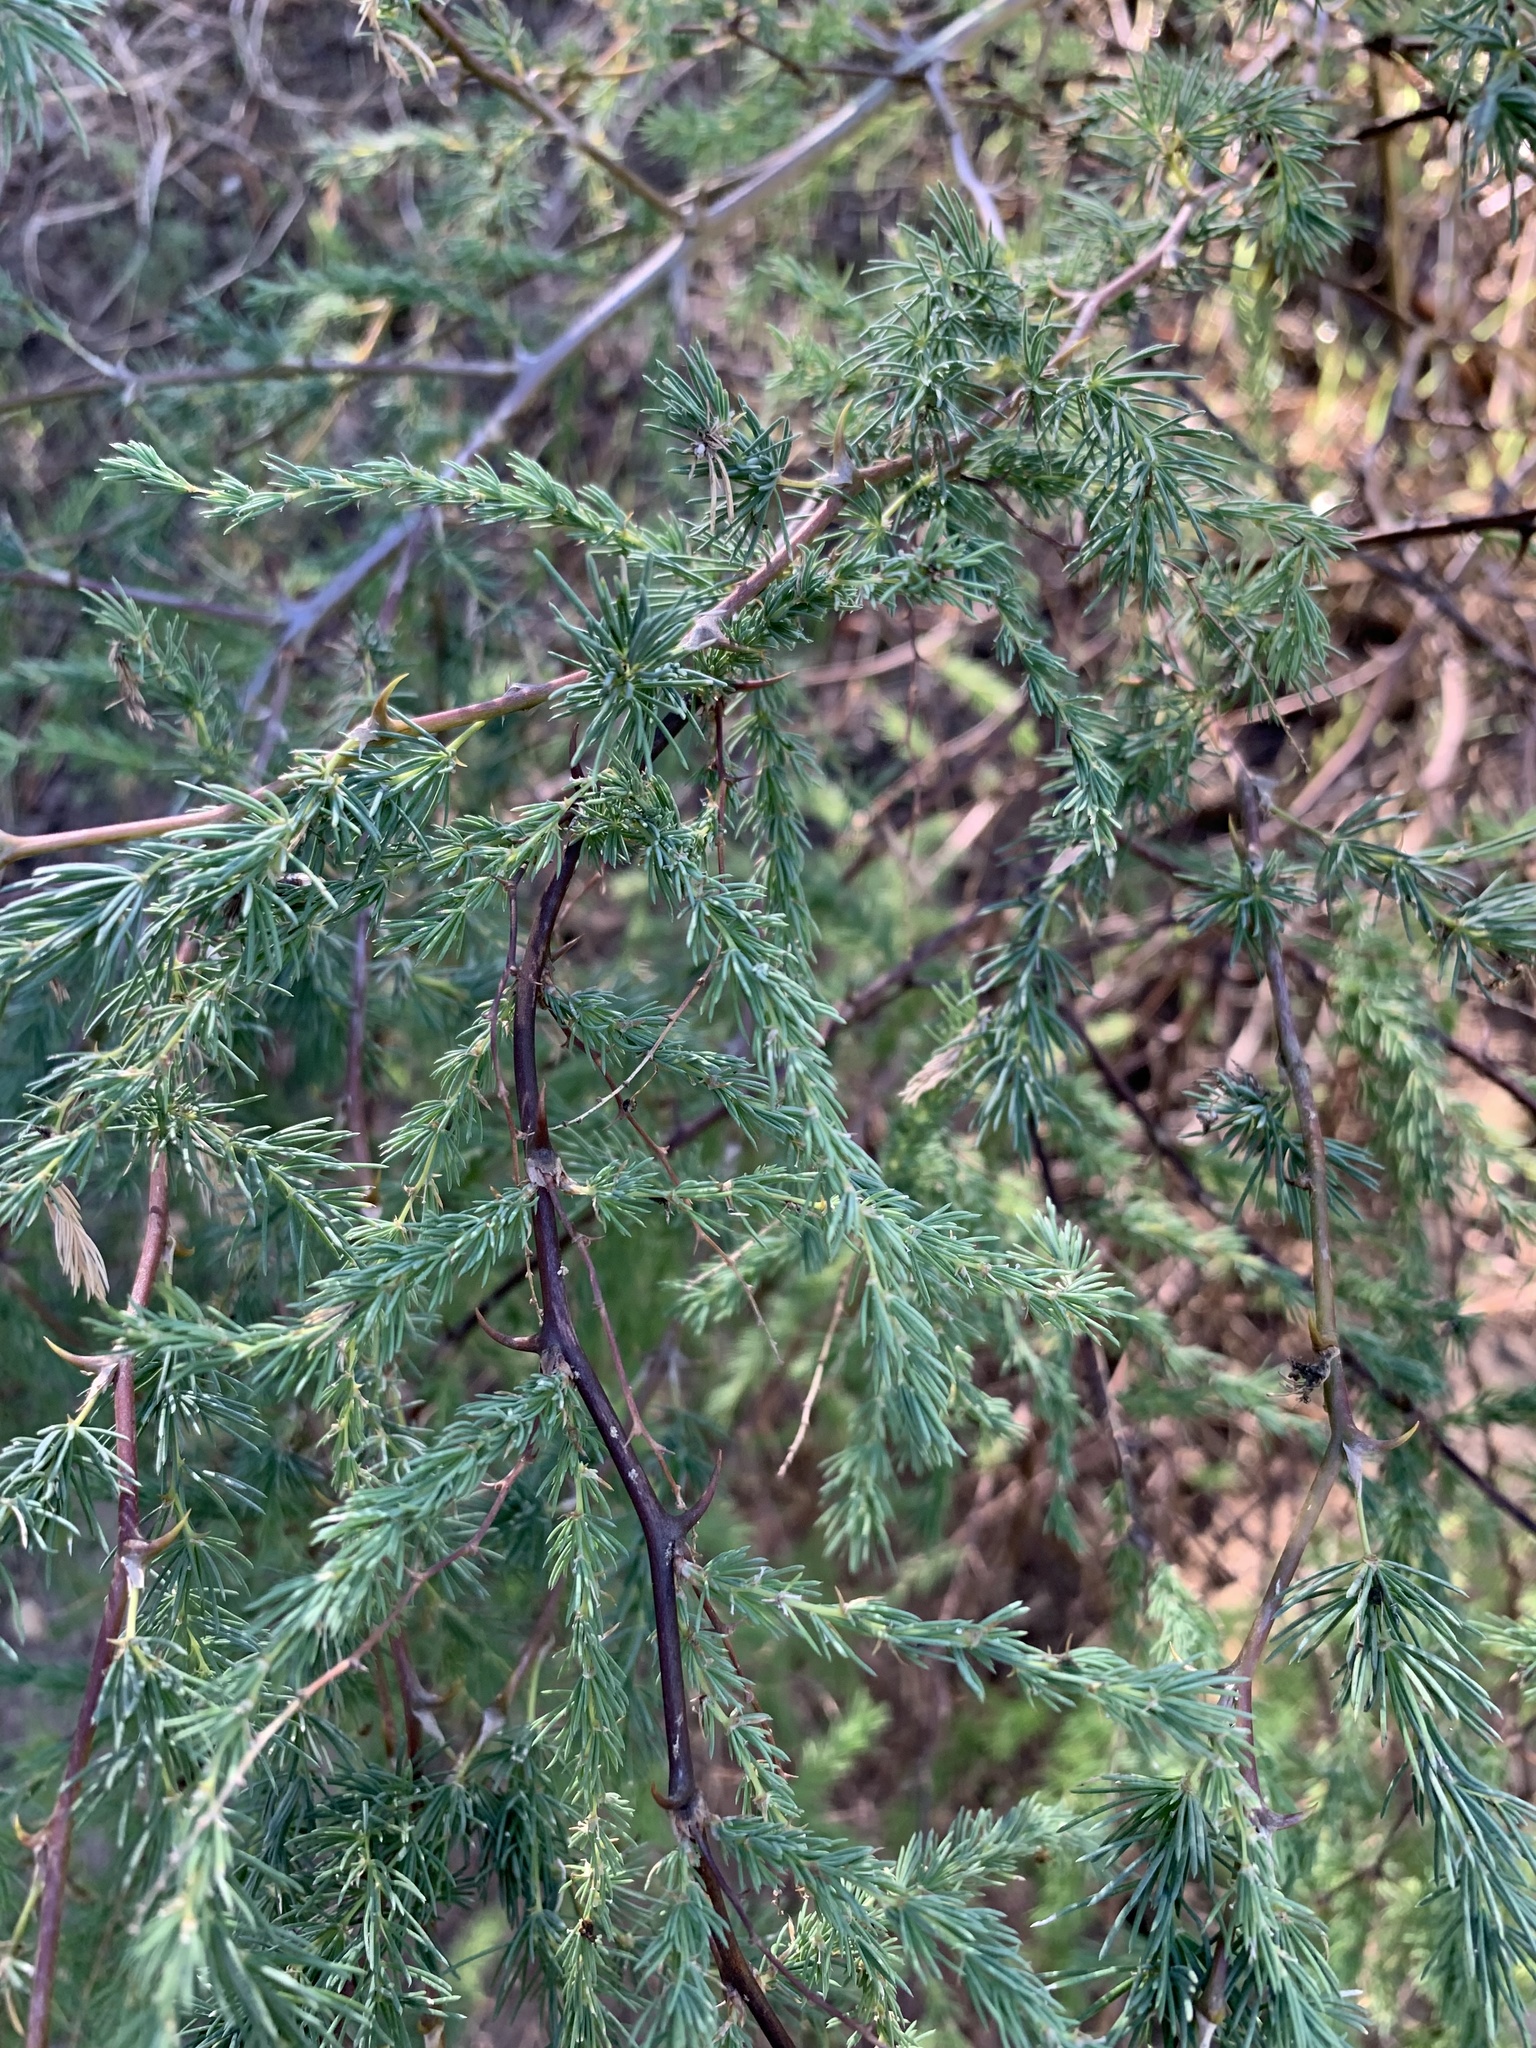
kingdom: Plantae
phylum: Tracheophyta
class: Liliopsida
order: Asparagales
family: Asparagaceae
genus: Asparagus
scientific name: Asparagus rubicundus
